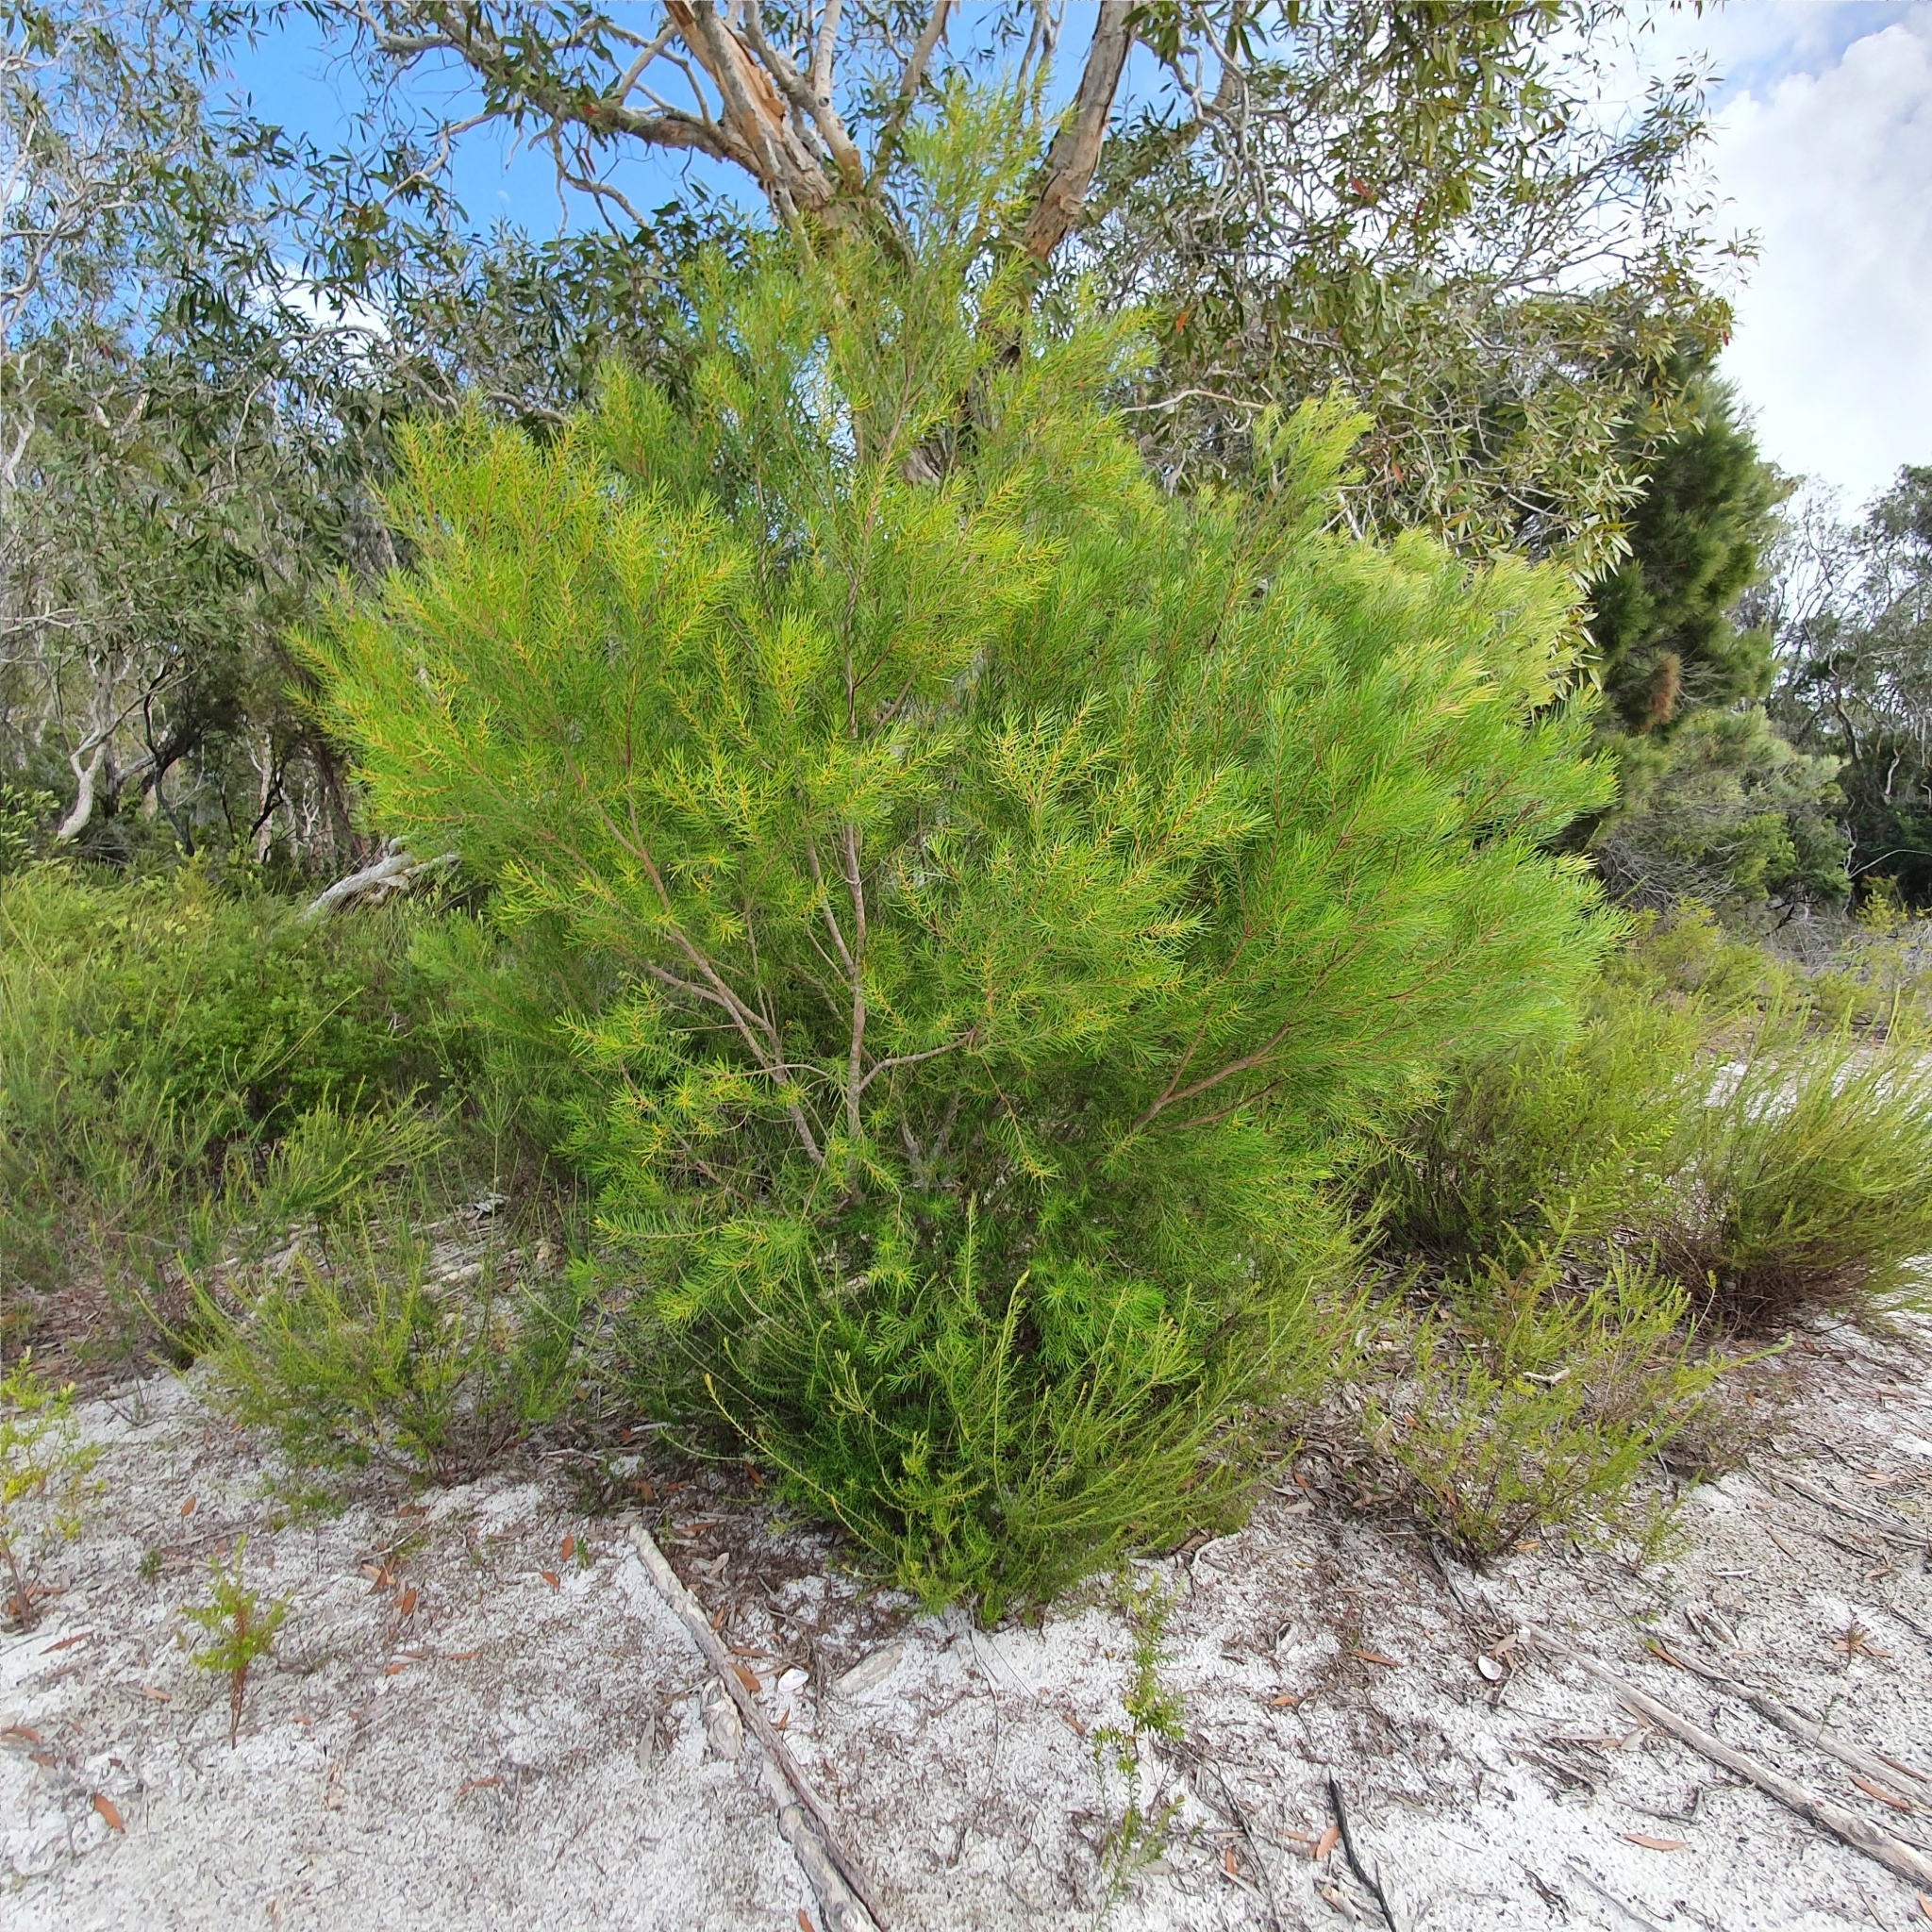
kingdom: Plantae
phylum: Tracheophyta
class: Magnoliopsida
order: Proteales
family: Proteaceae
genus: Persoonia
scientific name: Persoonia virgata
